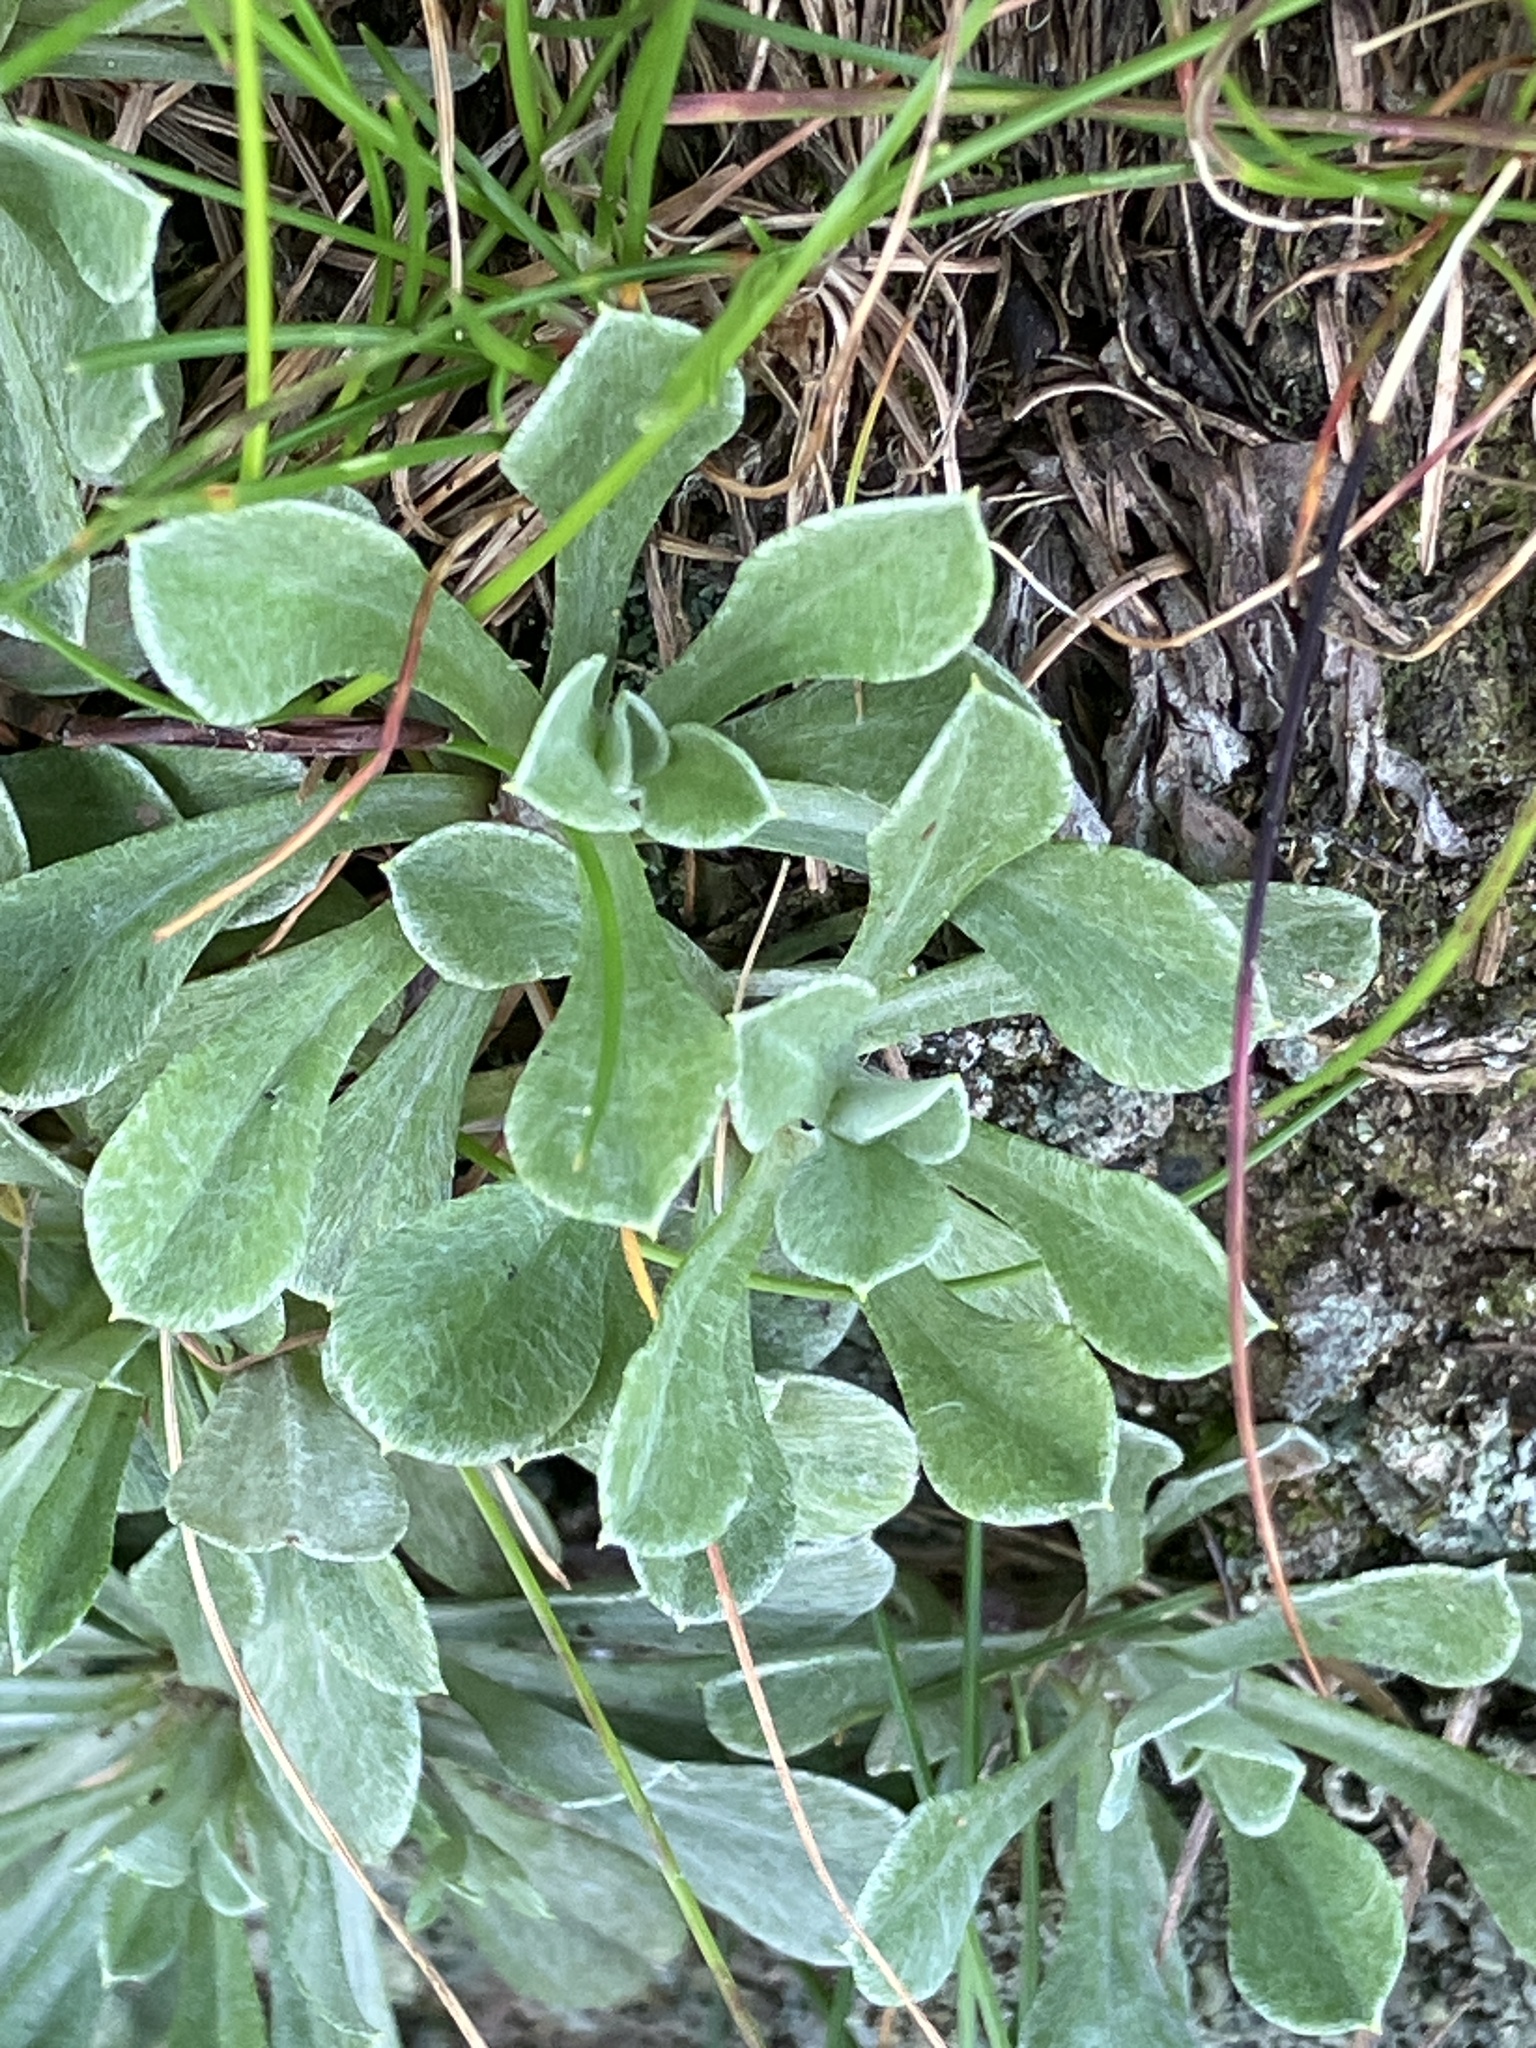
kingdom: Plantae
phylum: Tracheophyta
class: Magnoliopsida
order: Asterales
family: Asteraceae
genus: Antennaria
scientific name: Antennaria dioica
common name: Mountain everlasting
